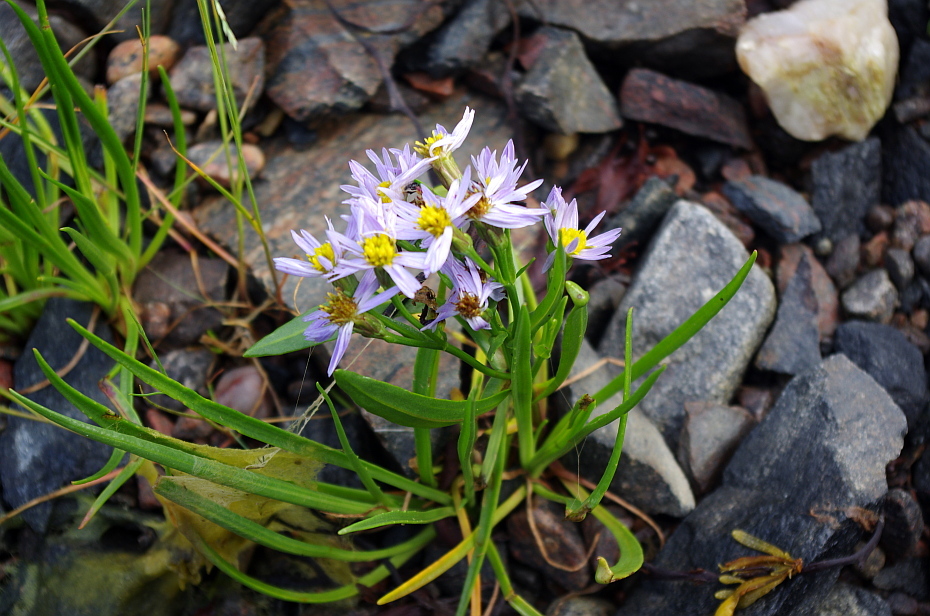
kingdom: Plantae
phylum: Tracheophyta
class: Magnoliopsida
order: Asterales
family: Asteraceae
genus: Tripolium
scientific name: Tripolium pannonicum
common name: Sea aster
